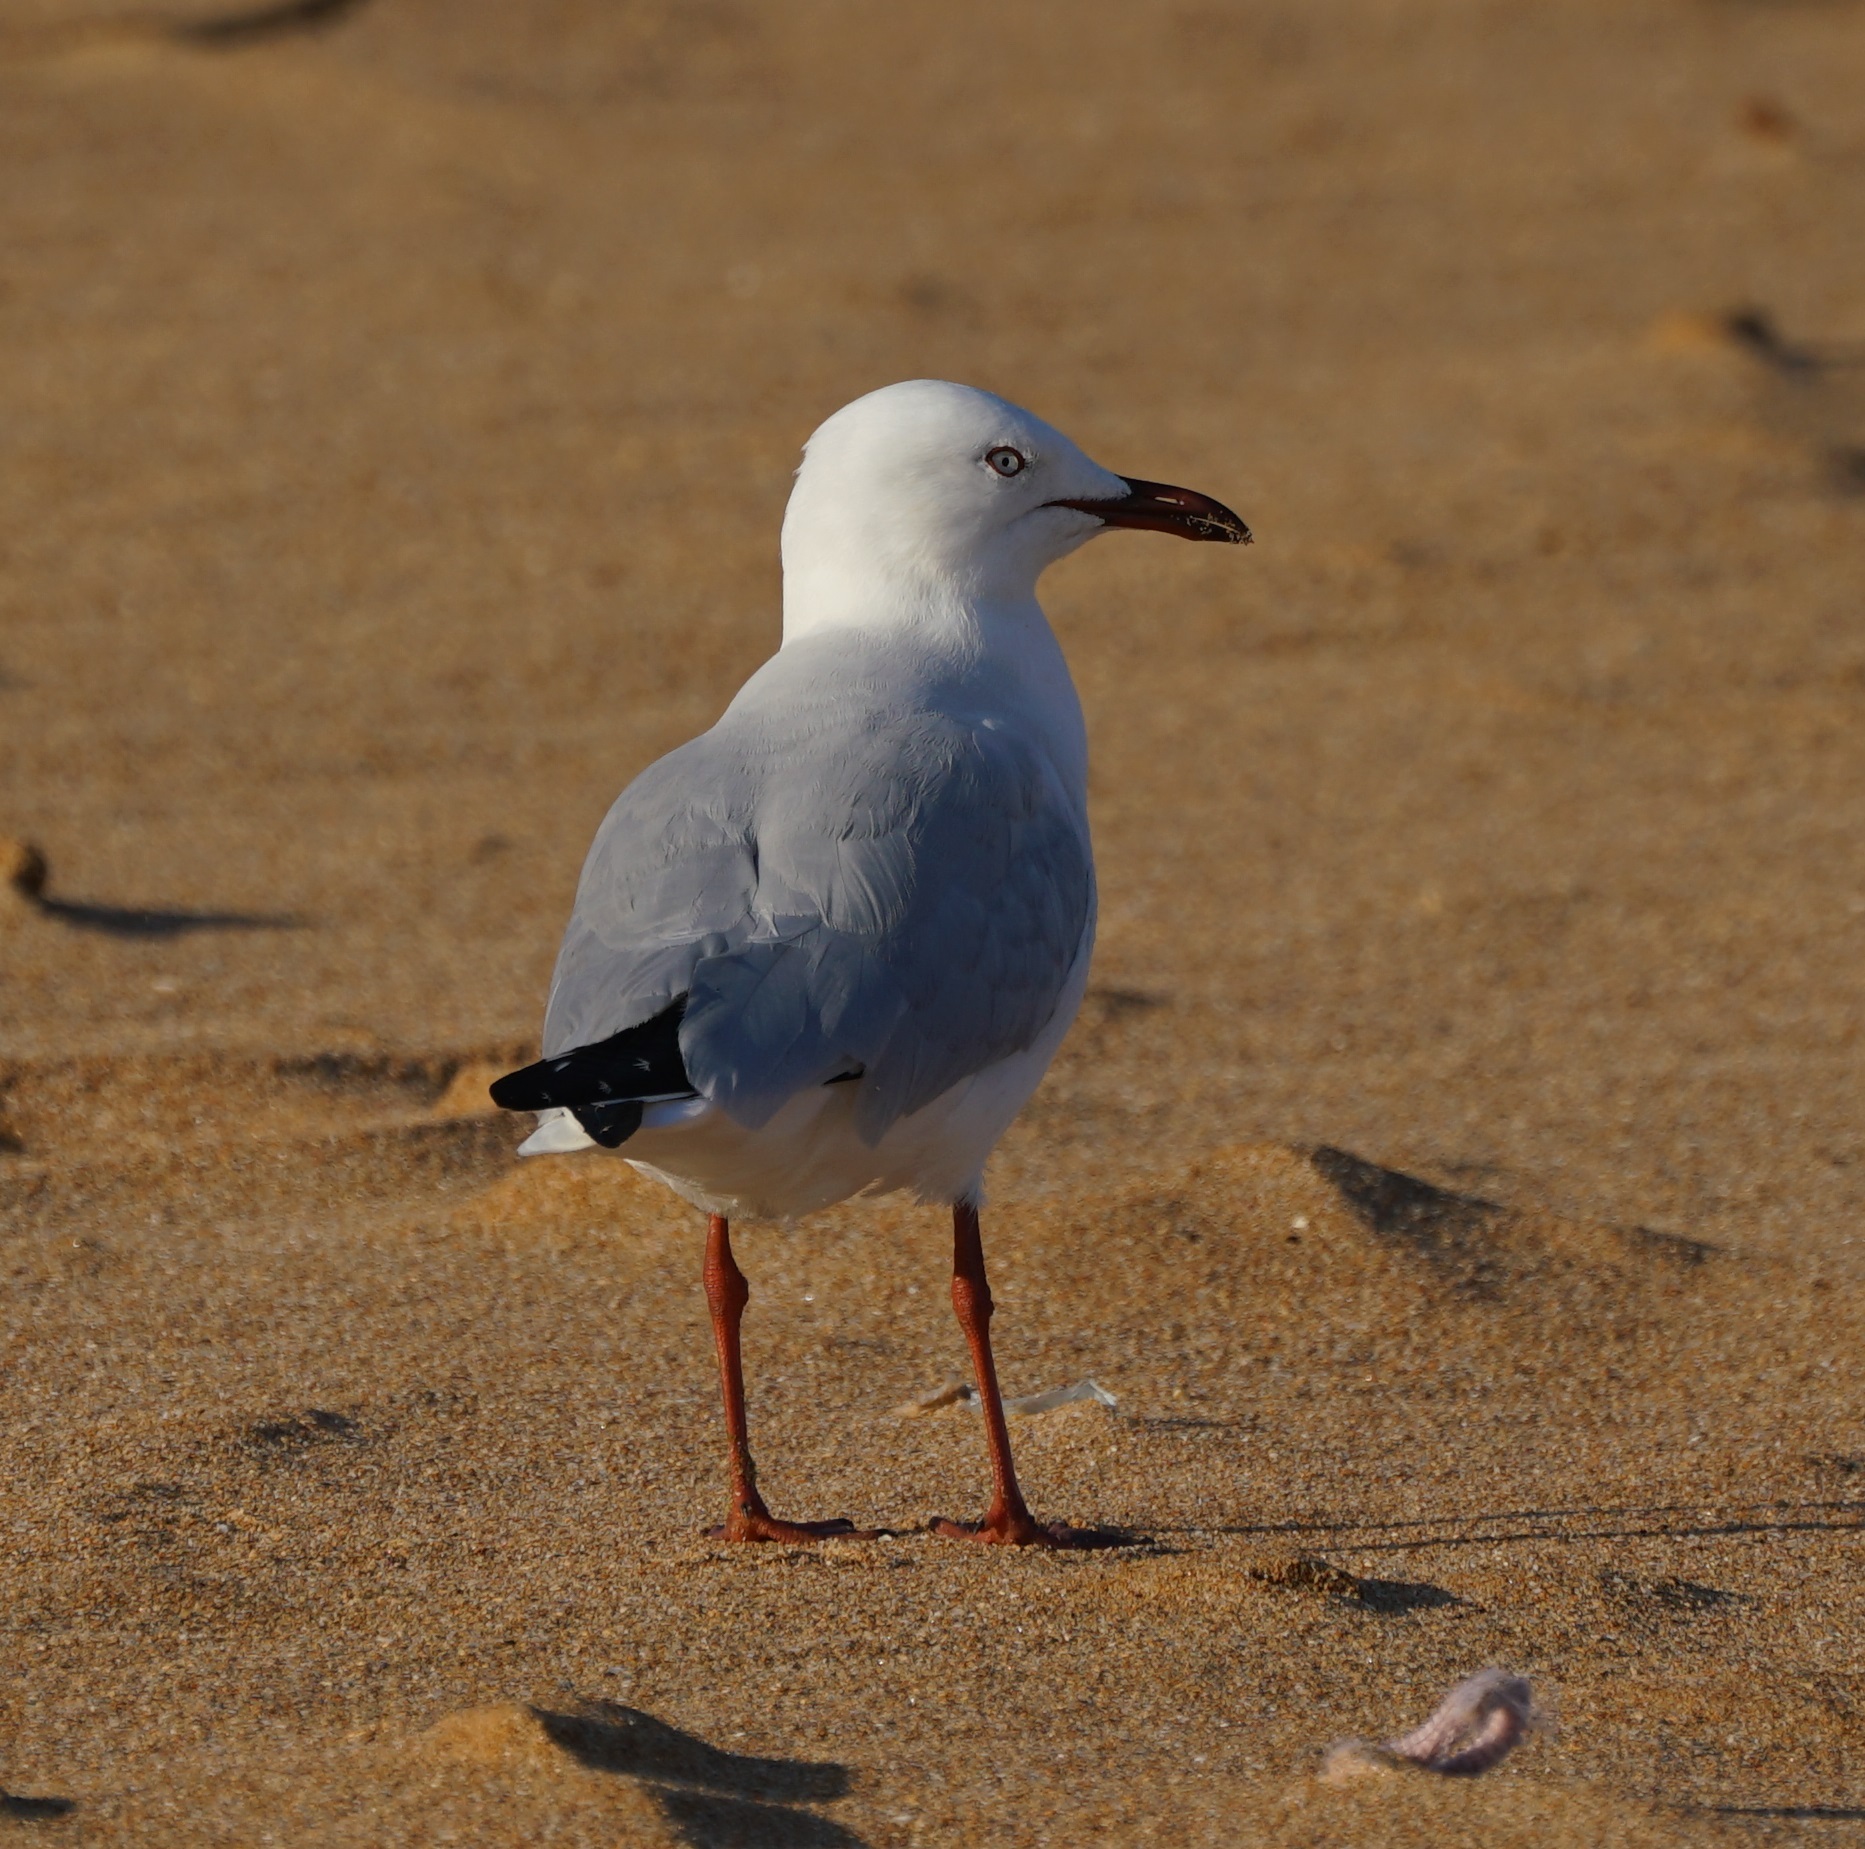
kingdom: Animalia
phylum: Chordata
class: Aves
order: Charadriiformes
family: Laridae
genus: Chroicocephalus
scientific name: Chroicocephalus novaehollandiae
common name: Silver gull
